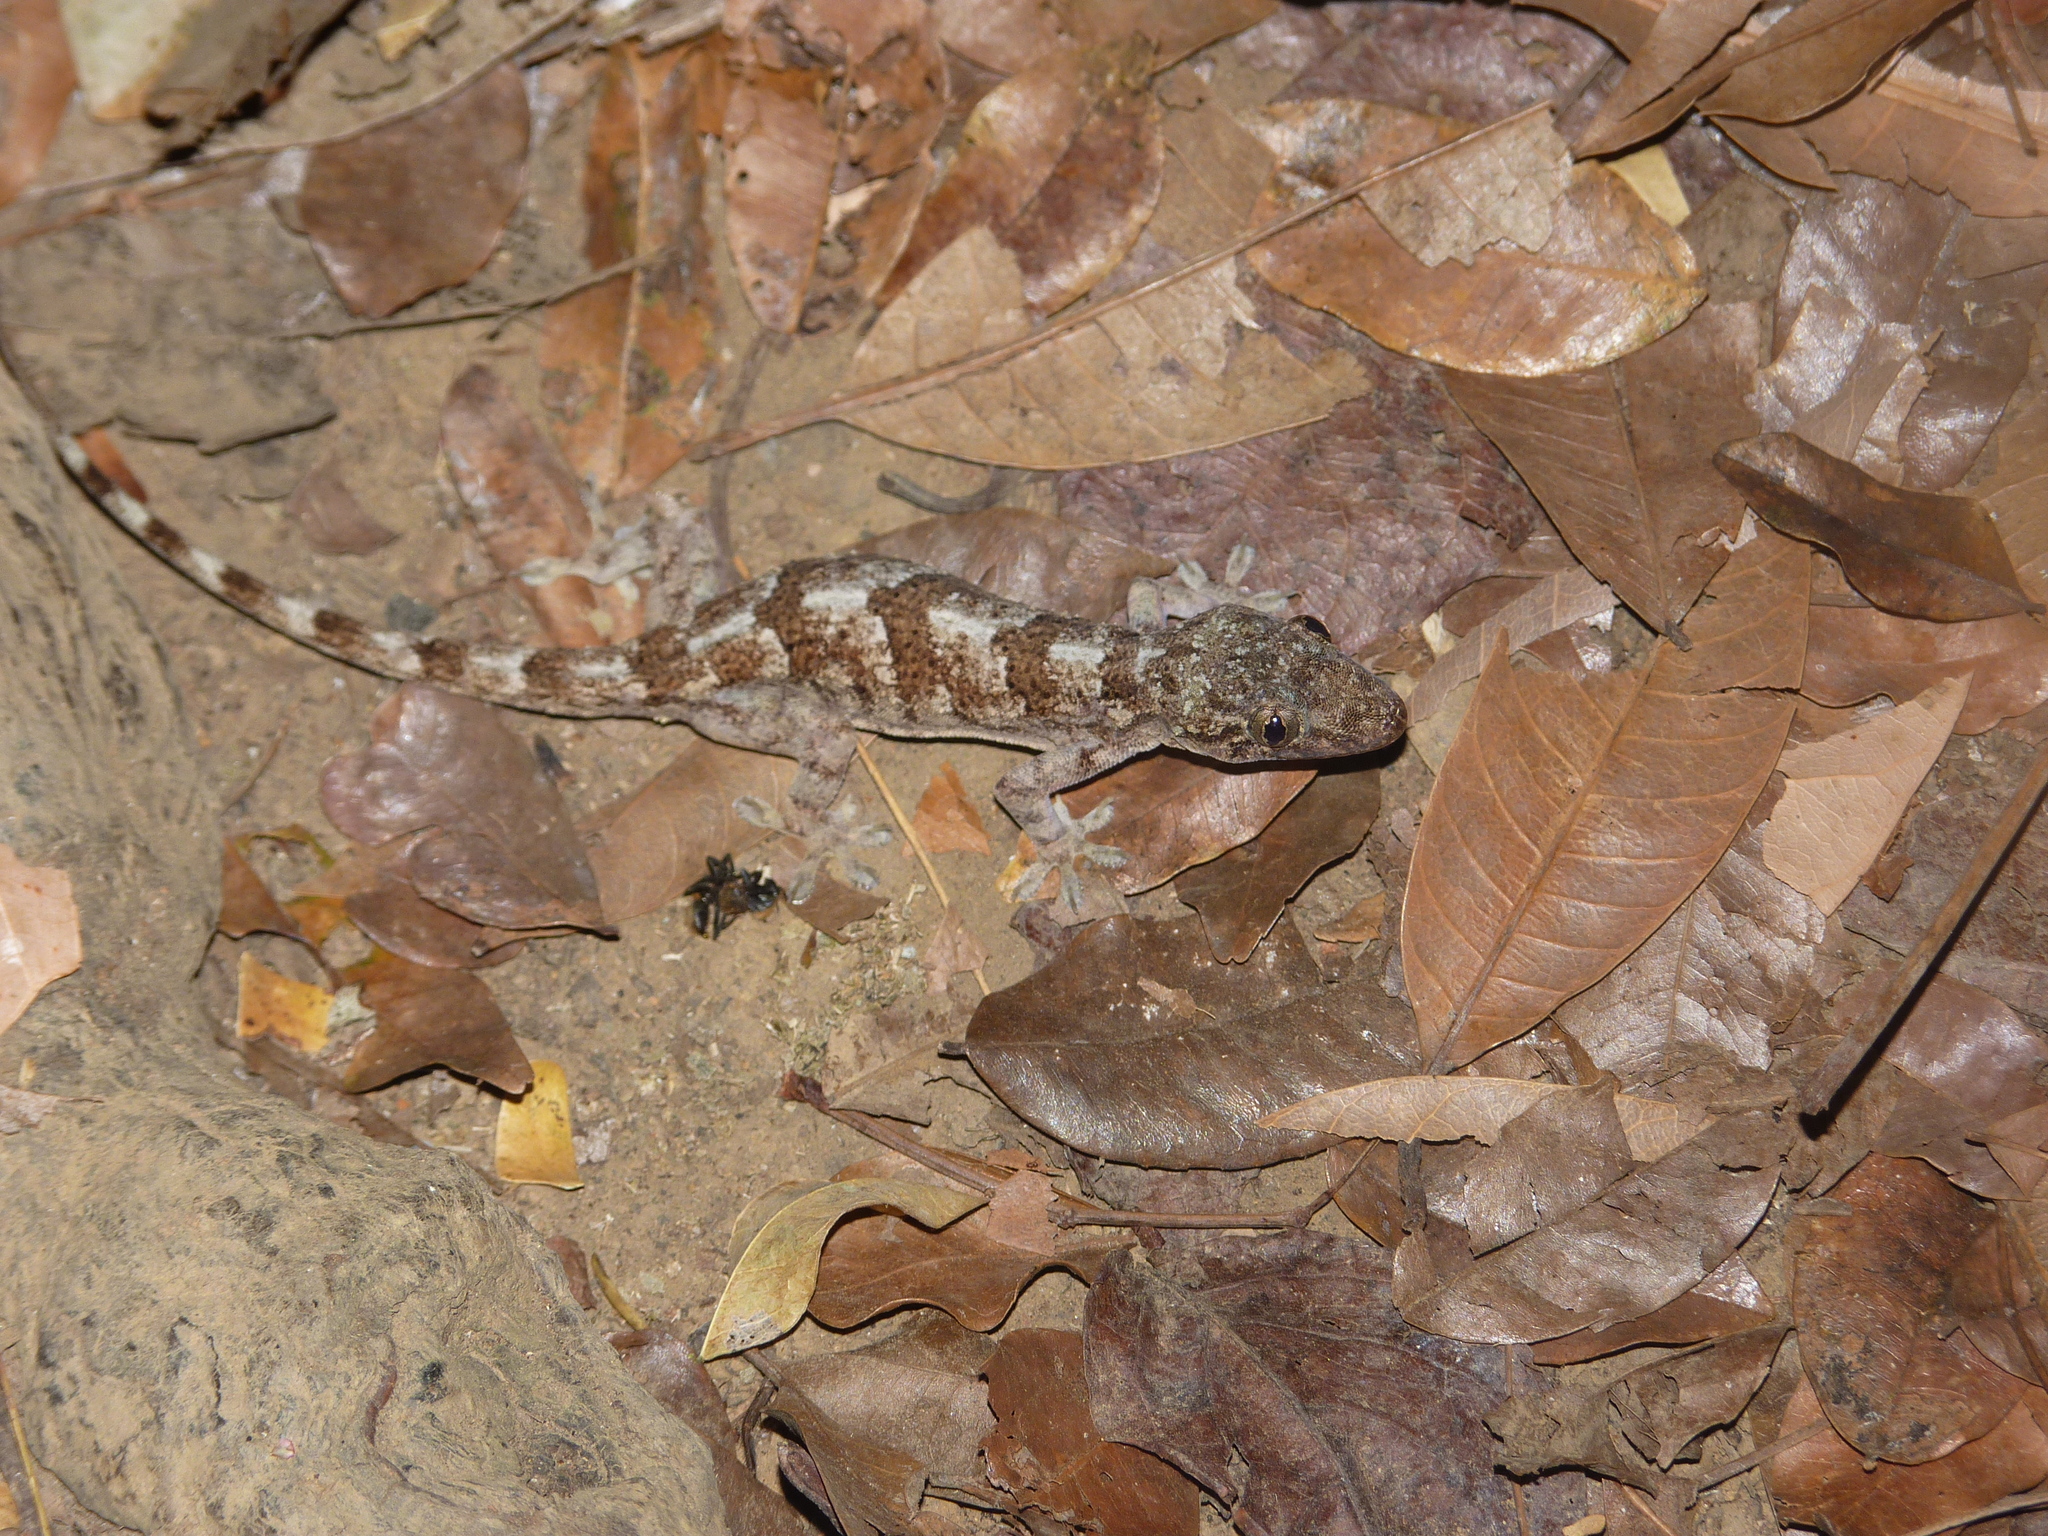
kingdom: Animalia
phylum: Chordata
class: Squamata
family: Gekkonidae
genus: Hemidactylus
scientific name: Hemidactylus mercatorius
